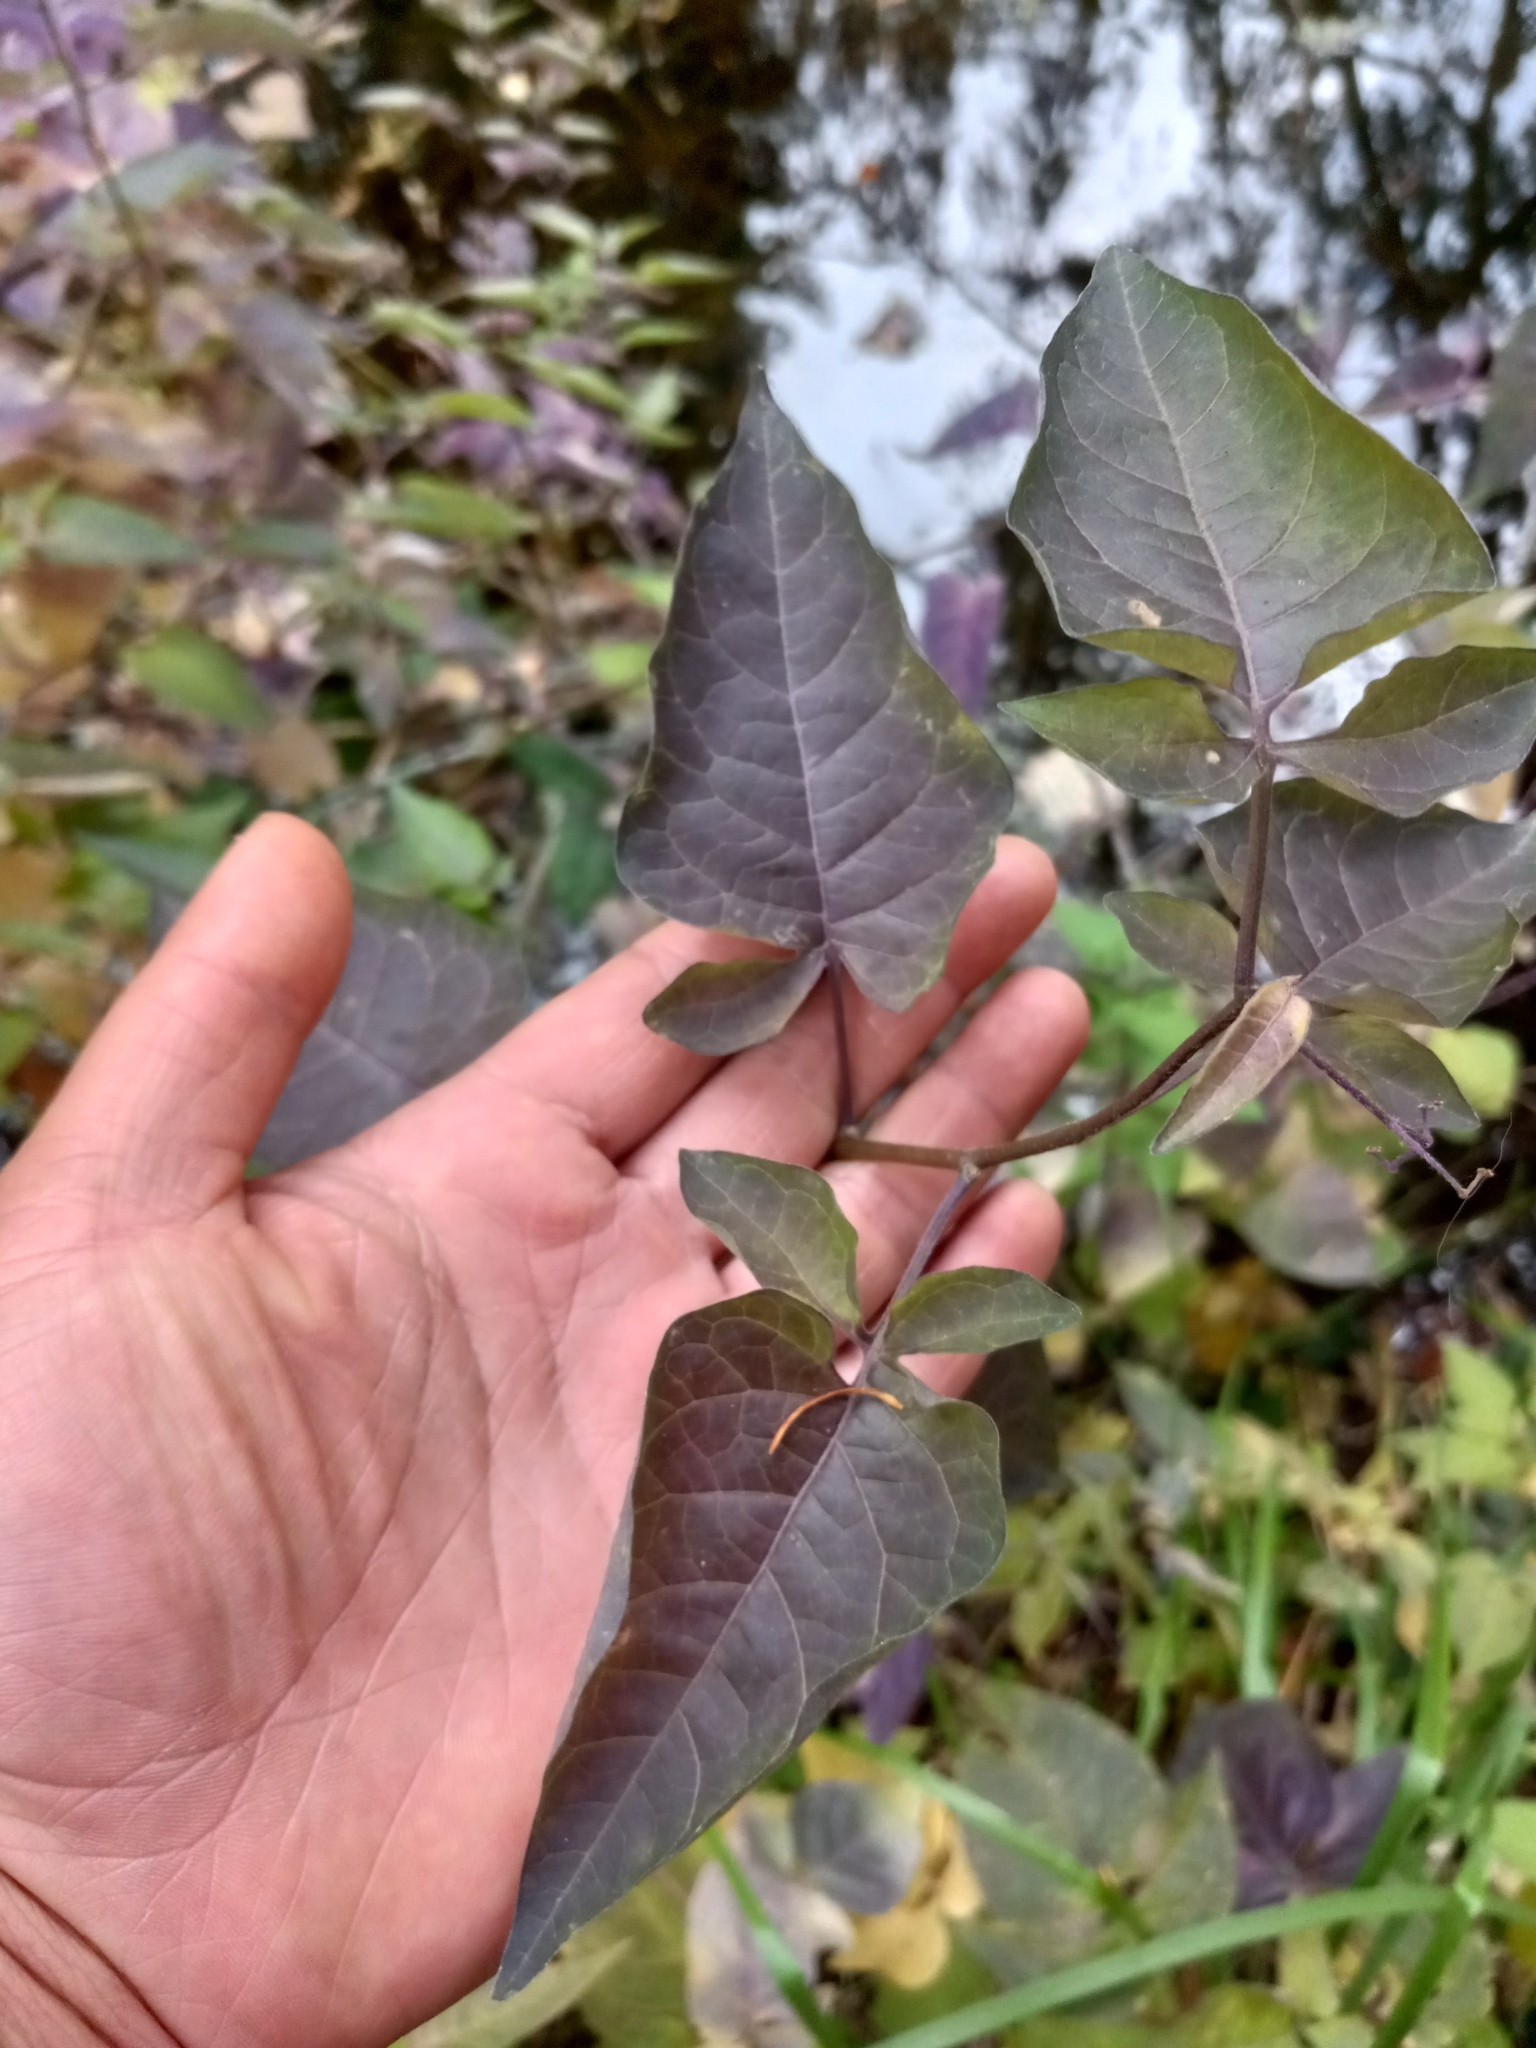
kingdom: Plantae
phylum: Tracheophyta
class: Magnoliopsida
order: Solanales
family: Solanaceae
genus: Solanum
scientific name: Solanum dulcamara
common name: Climbing nightshade
